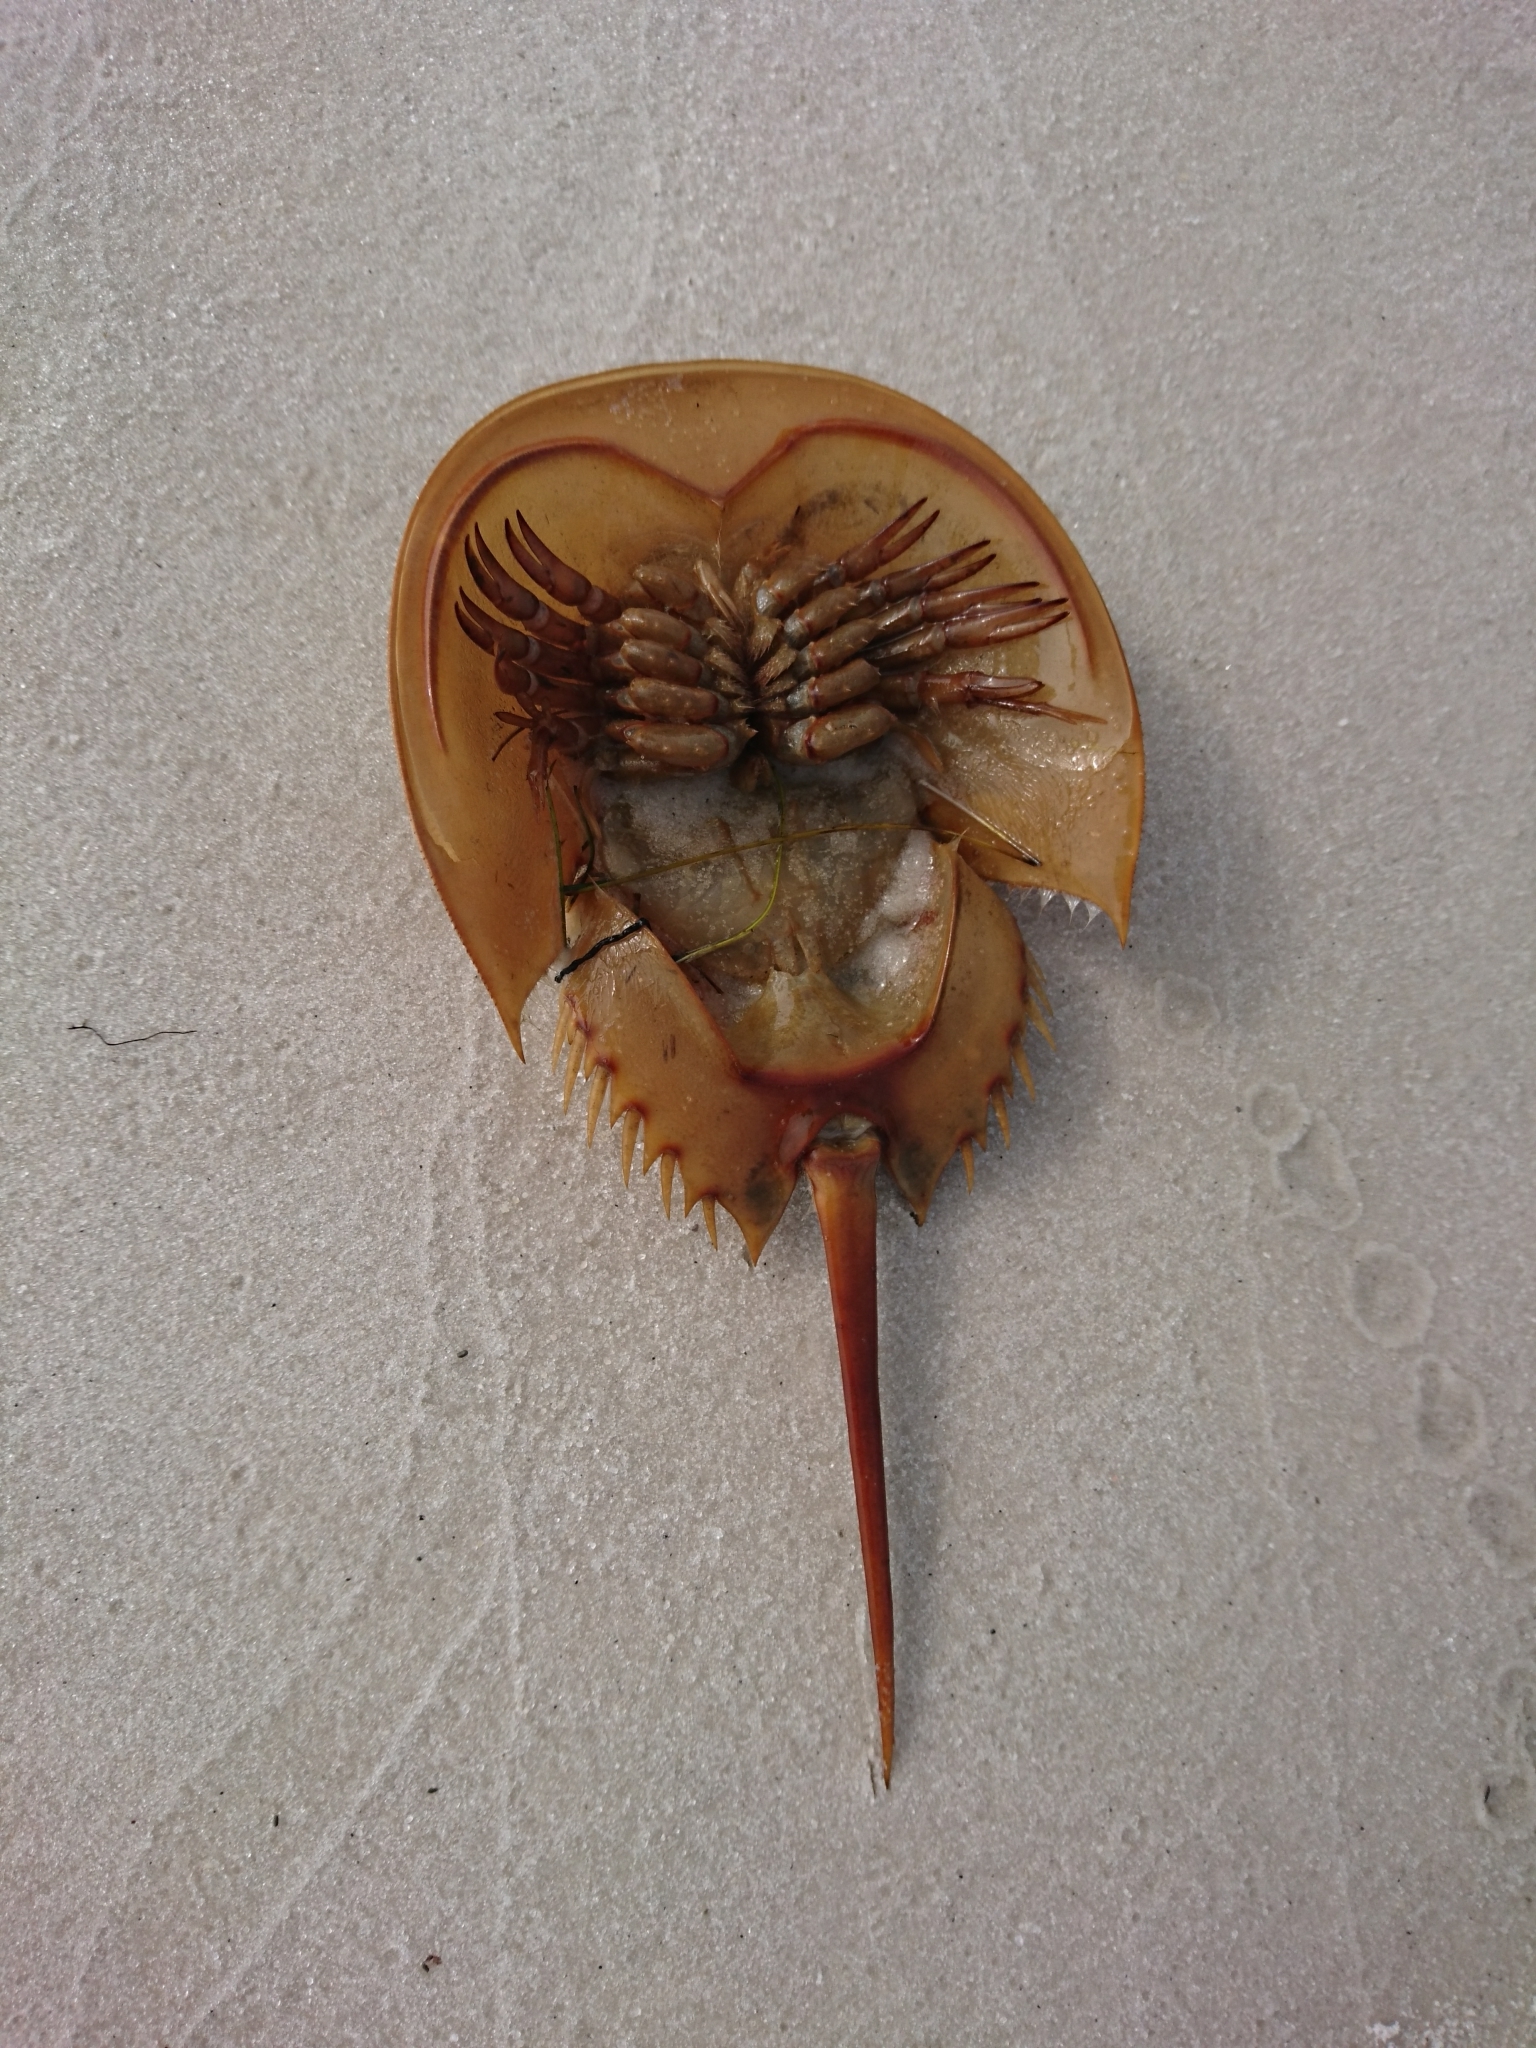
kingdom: Animalia
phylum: Arthropoda
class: Merostomata
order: Xiphosurida
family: Limulidae
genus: Limulus
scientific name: Limulus polyphemus
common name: Horseshoe crab
